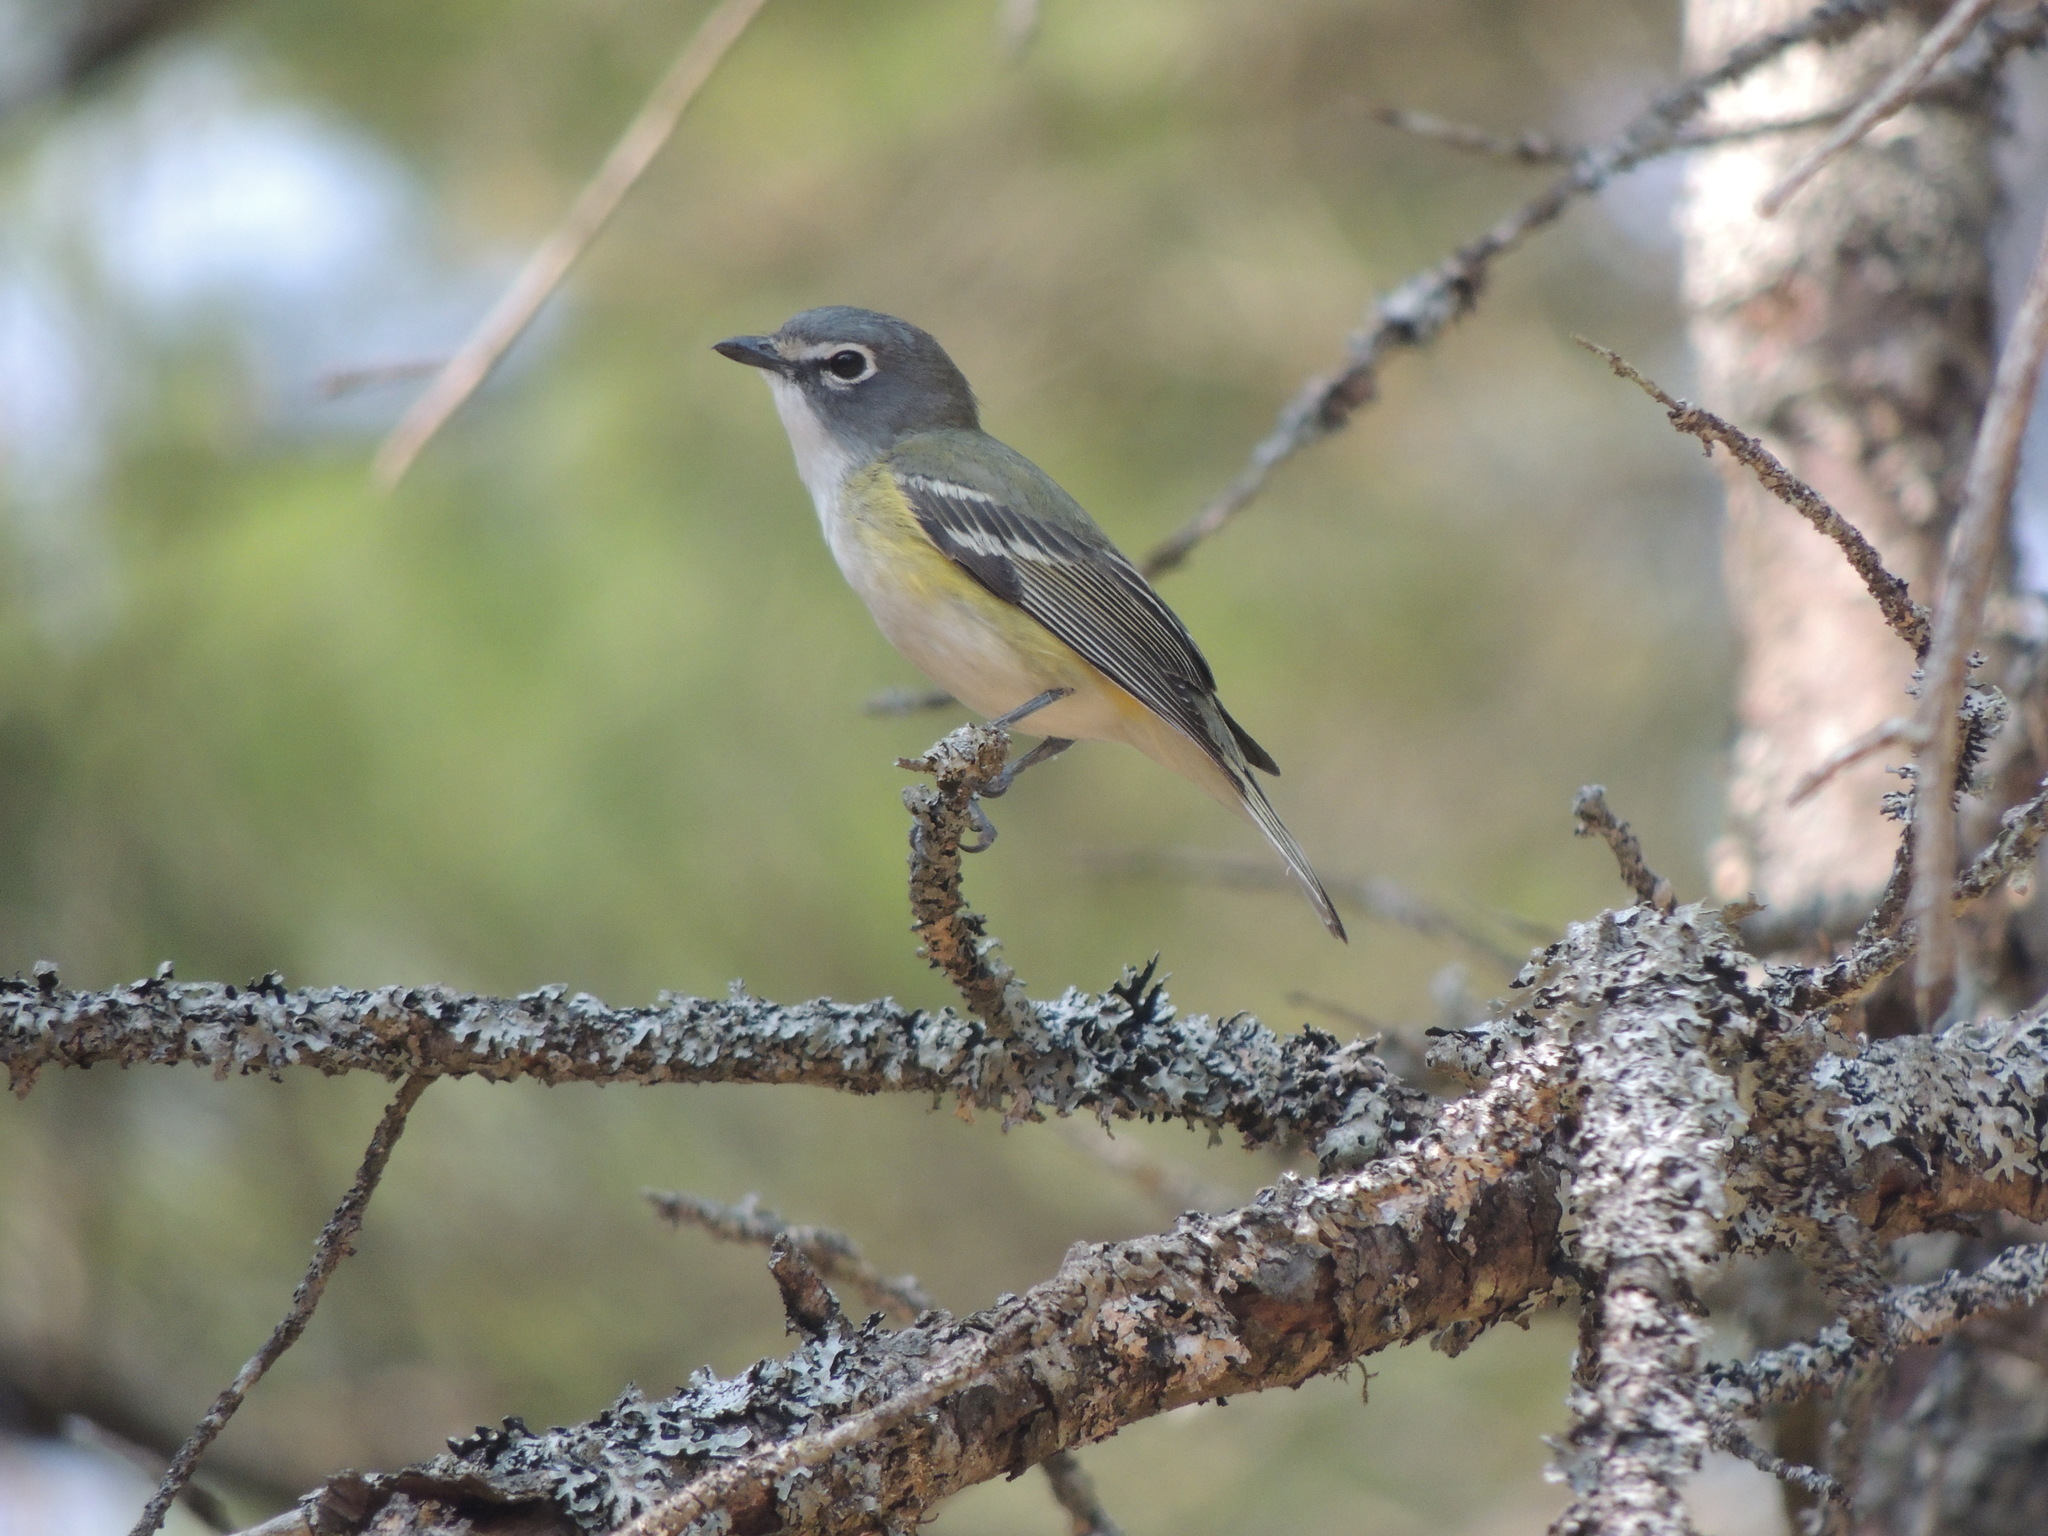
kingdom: Animalia
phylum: Chordata
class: Aves
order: Passeriformes
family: Vireonidae
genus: Vireo
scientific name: Vireo solitarius
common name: Blue-headed vireo
